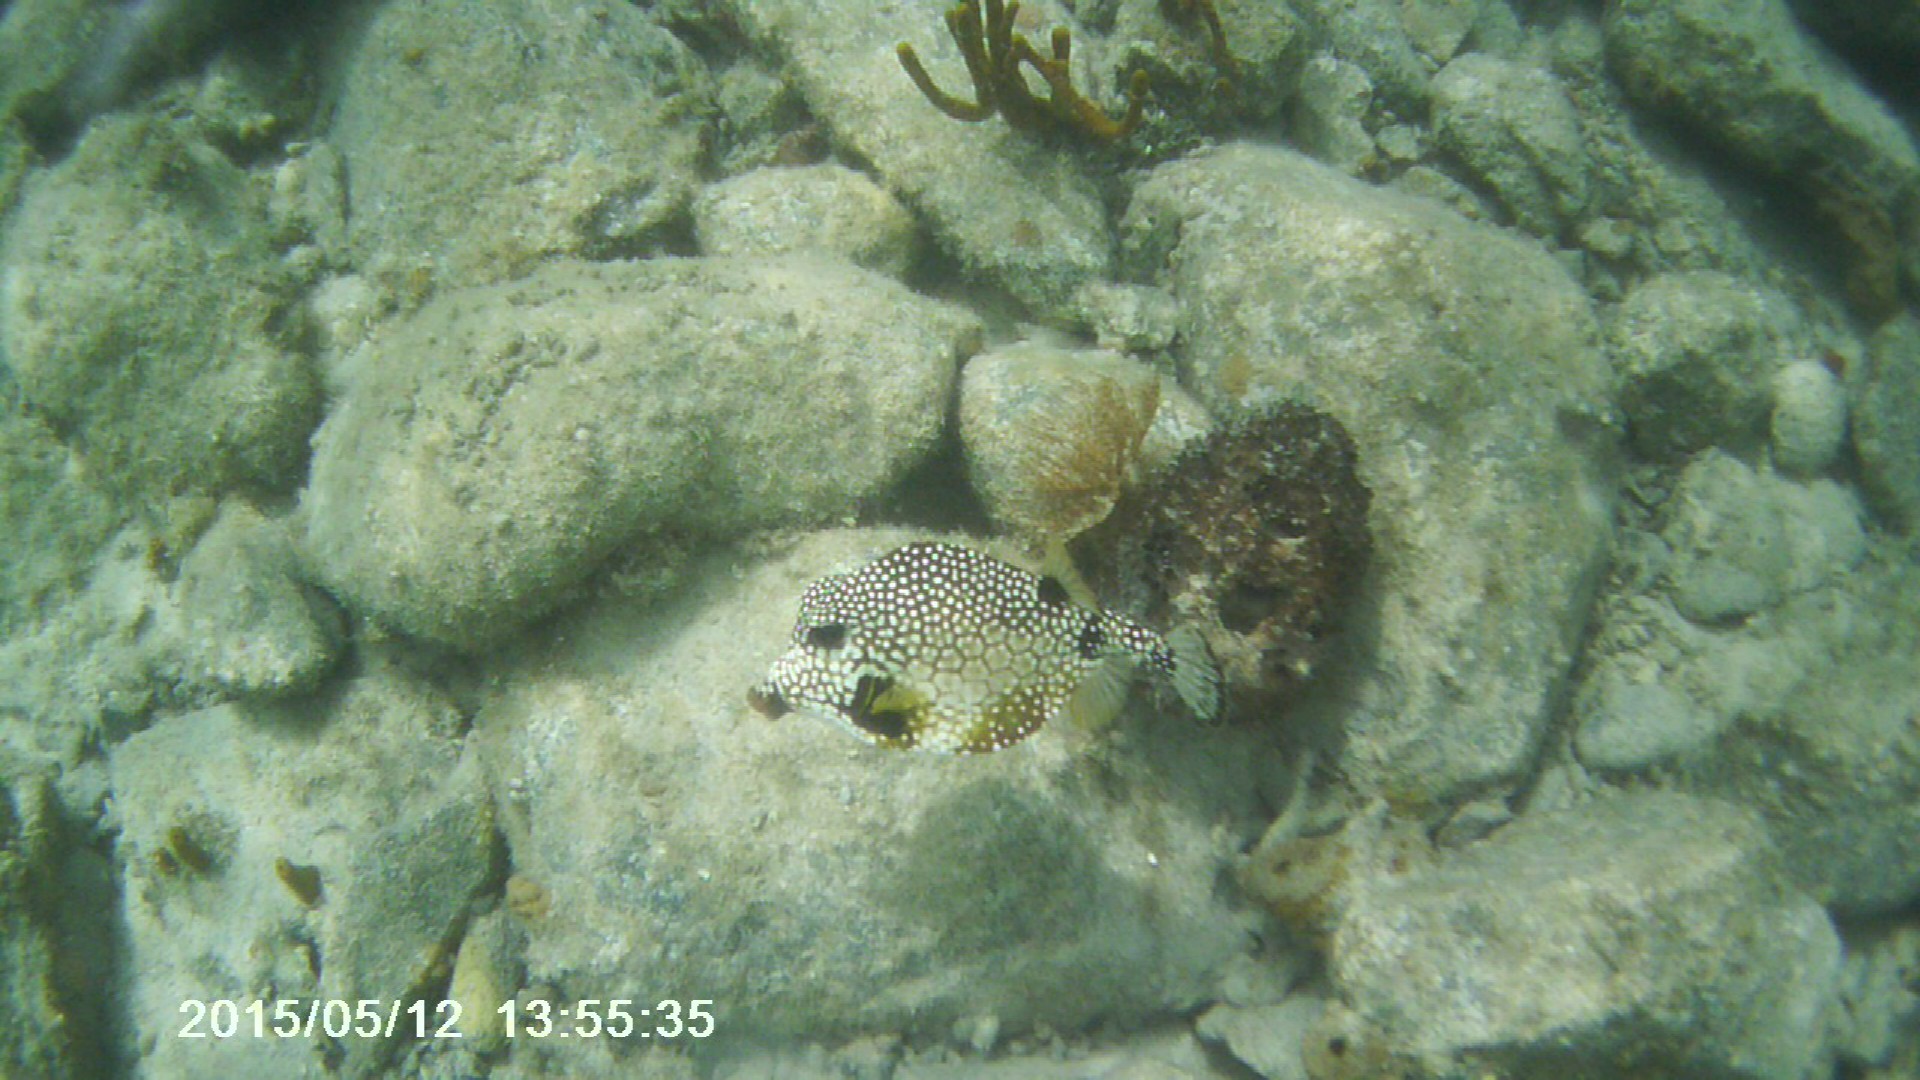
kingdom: Animalia
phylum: Chordata
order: Tetraodontiformes
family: Ostraciidae
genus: Lactophrys
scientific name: Lactophrys triqueter
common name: Smooth trunkfish
